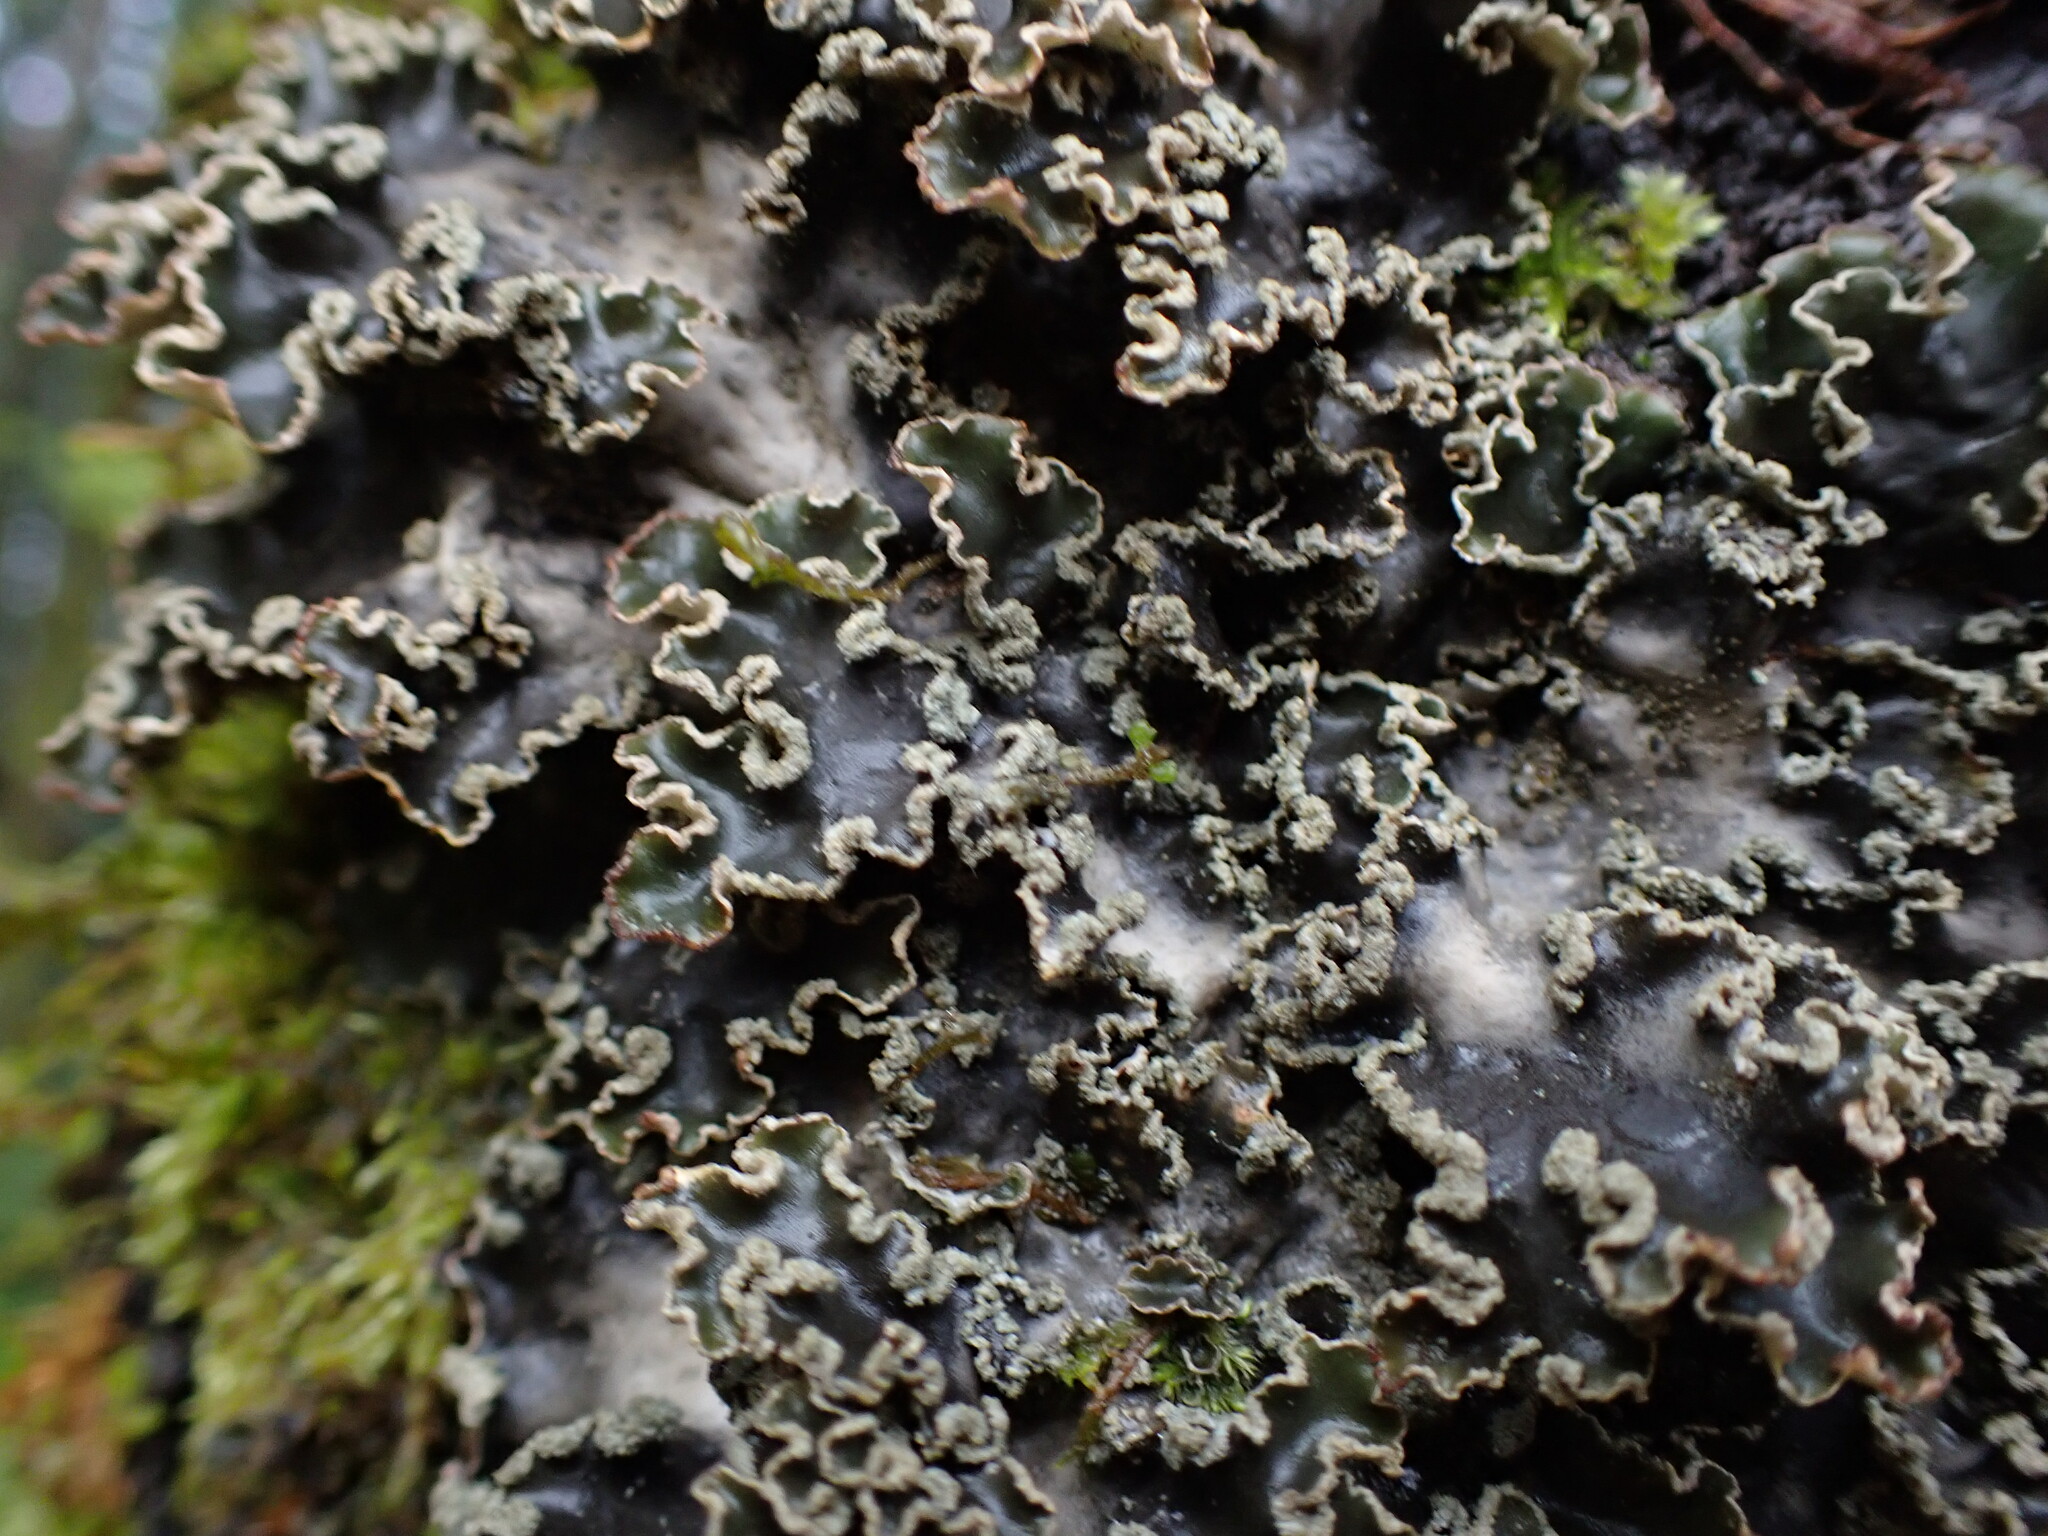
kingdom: Fungi
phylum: Ascomycota
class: Lecanoromycetes
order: Peltigerales
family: Peltigeraceae
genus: Peltigera
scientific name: Peltigera collina
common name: Gritty tree pelt lichen
